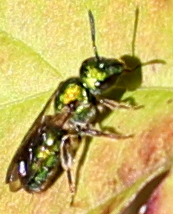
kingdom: Animalia
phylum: Arthropoda
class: Insecta
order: Hymenoptera
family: Halictidae
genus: Augochlora
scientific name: Augochlora pura
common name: Pure green sweat bee
